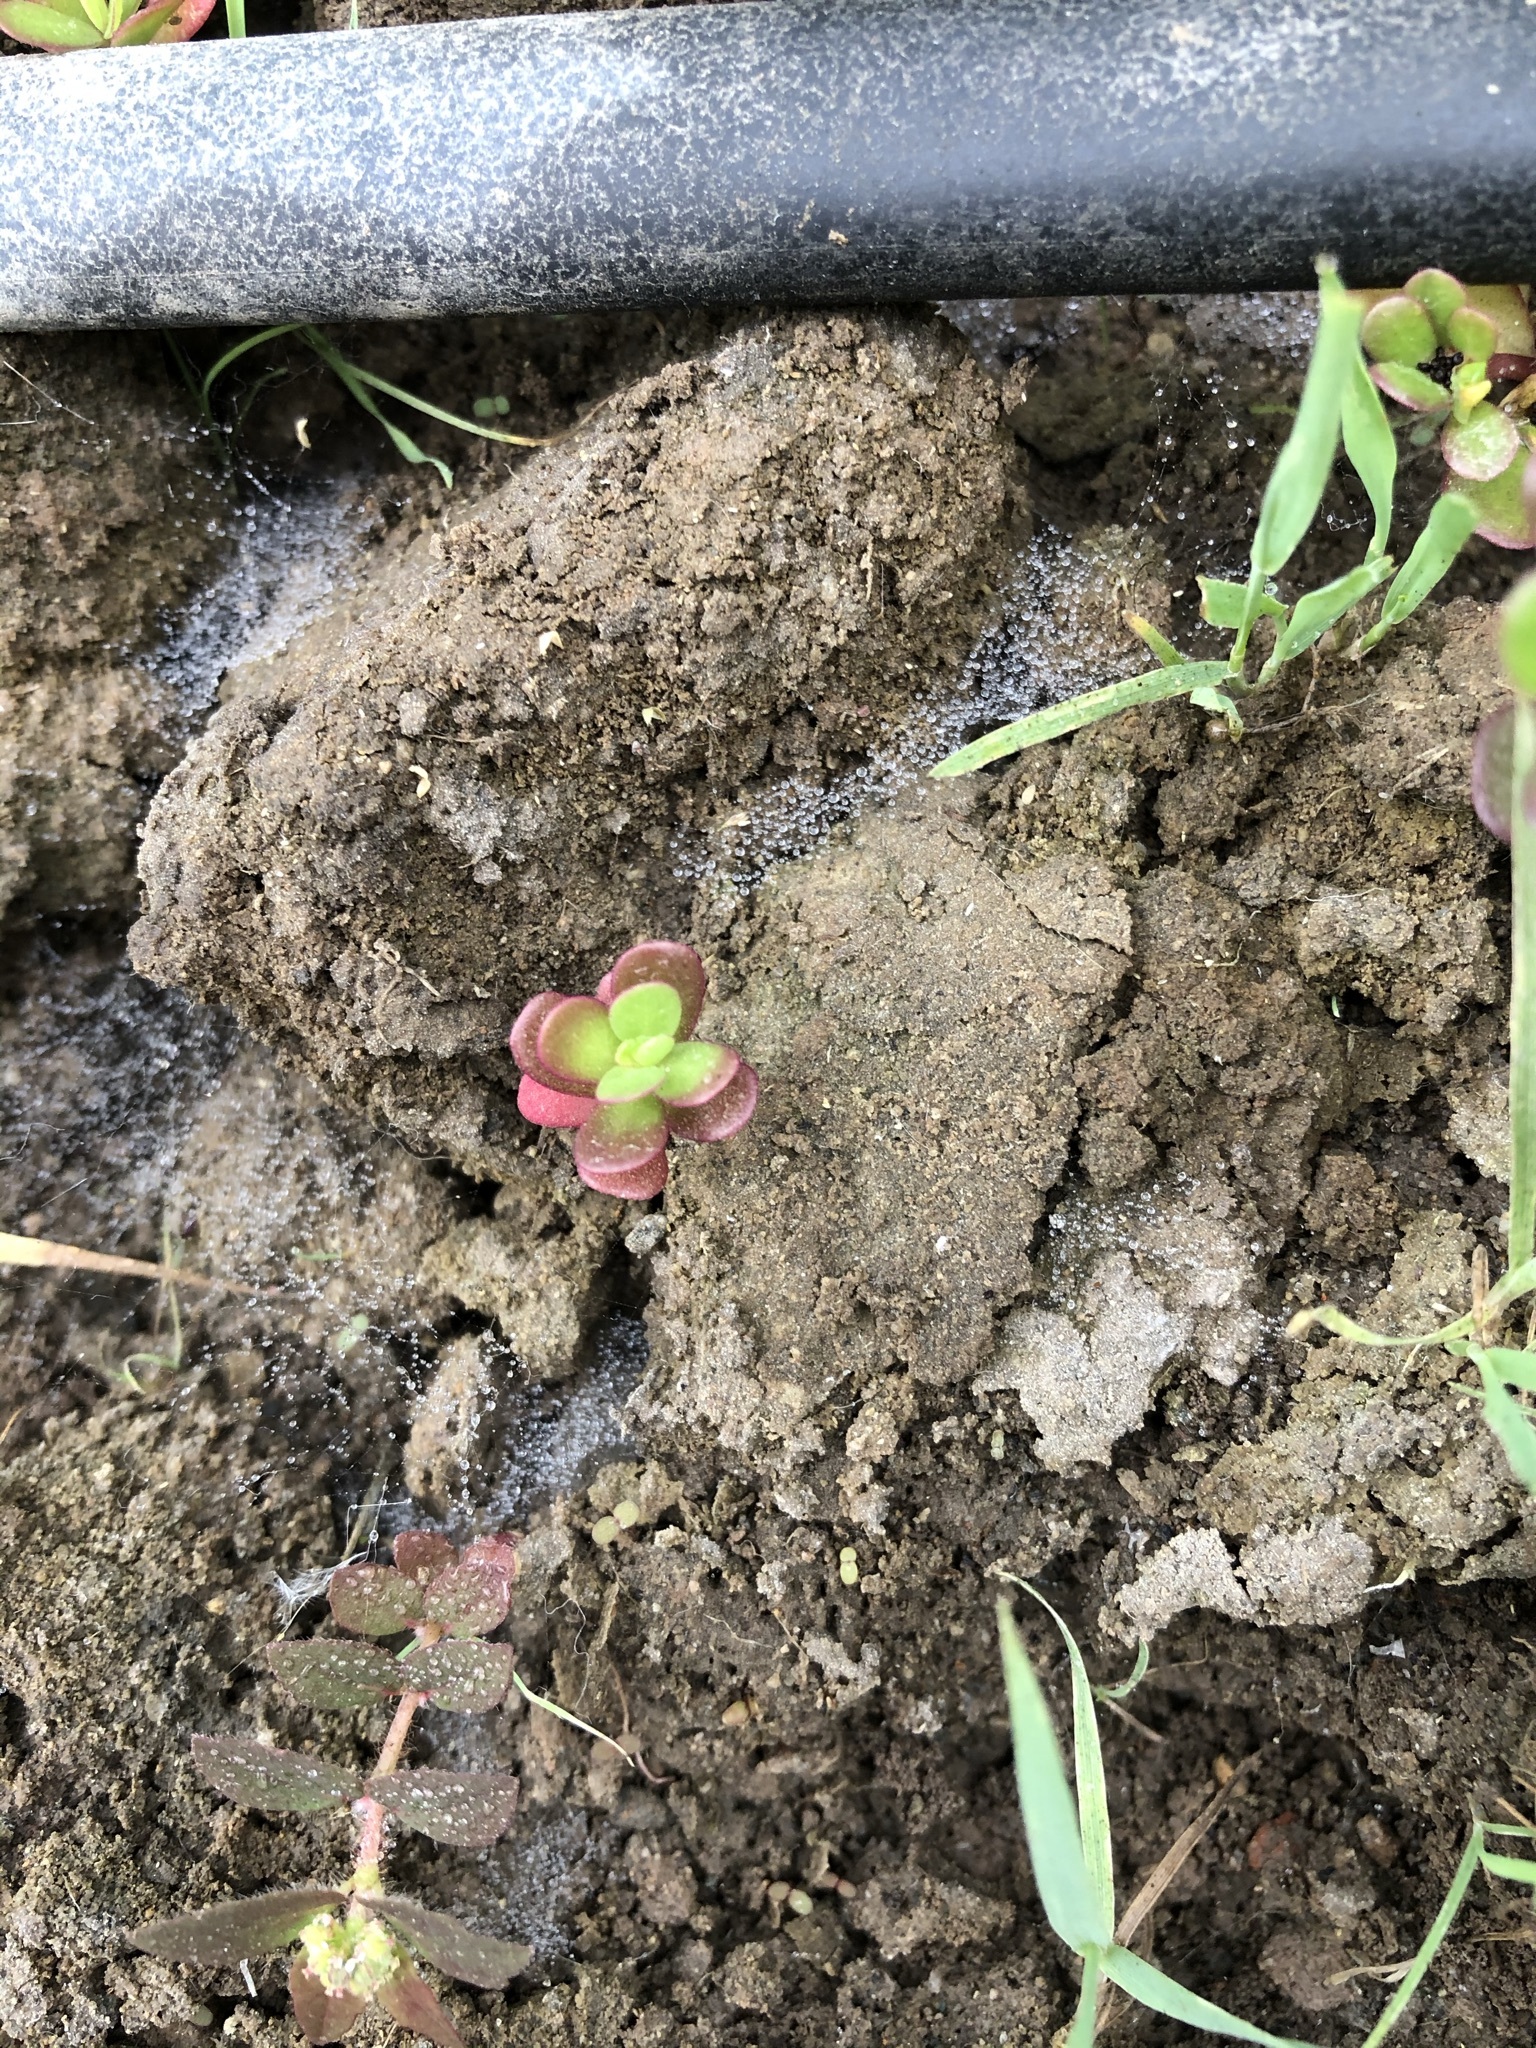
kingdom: Plantae
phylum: Tracheophyta
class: Magnoliopsida
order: Caryophyllales
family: Portulacaceae
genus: Portulaca
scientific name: Portulaca oleracea
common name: Common purslane
